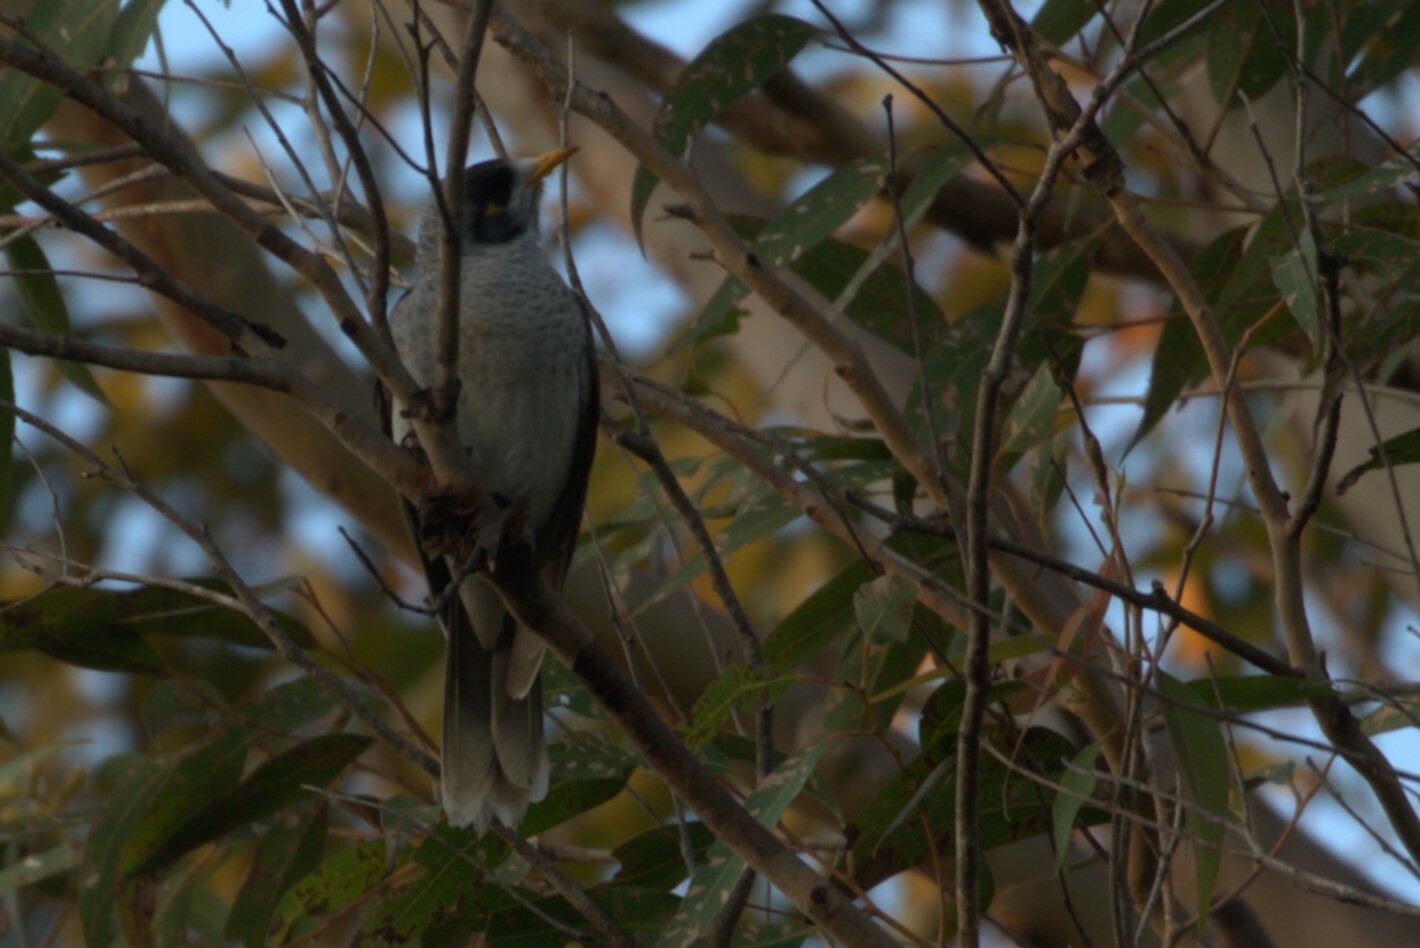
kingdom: Animalia
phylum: Chordata
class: Aves
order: Passeriformes
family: Meliphagidae
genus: Manorina
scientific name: Manorina melanocephala
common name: Noisy miner
